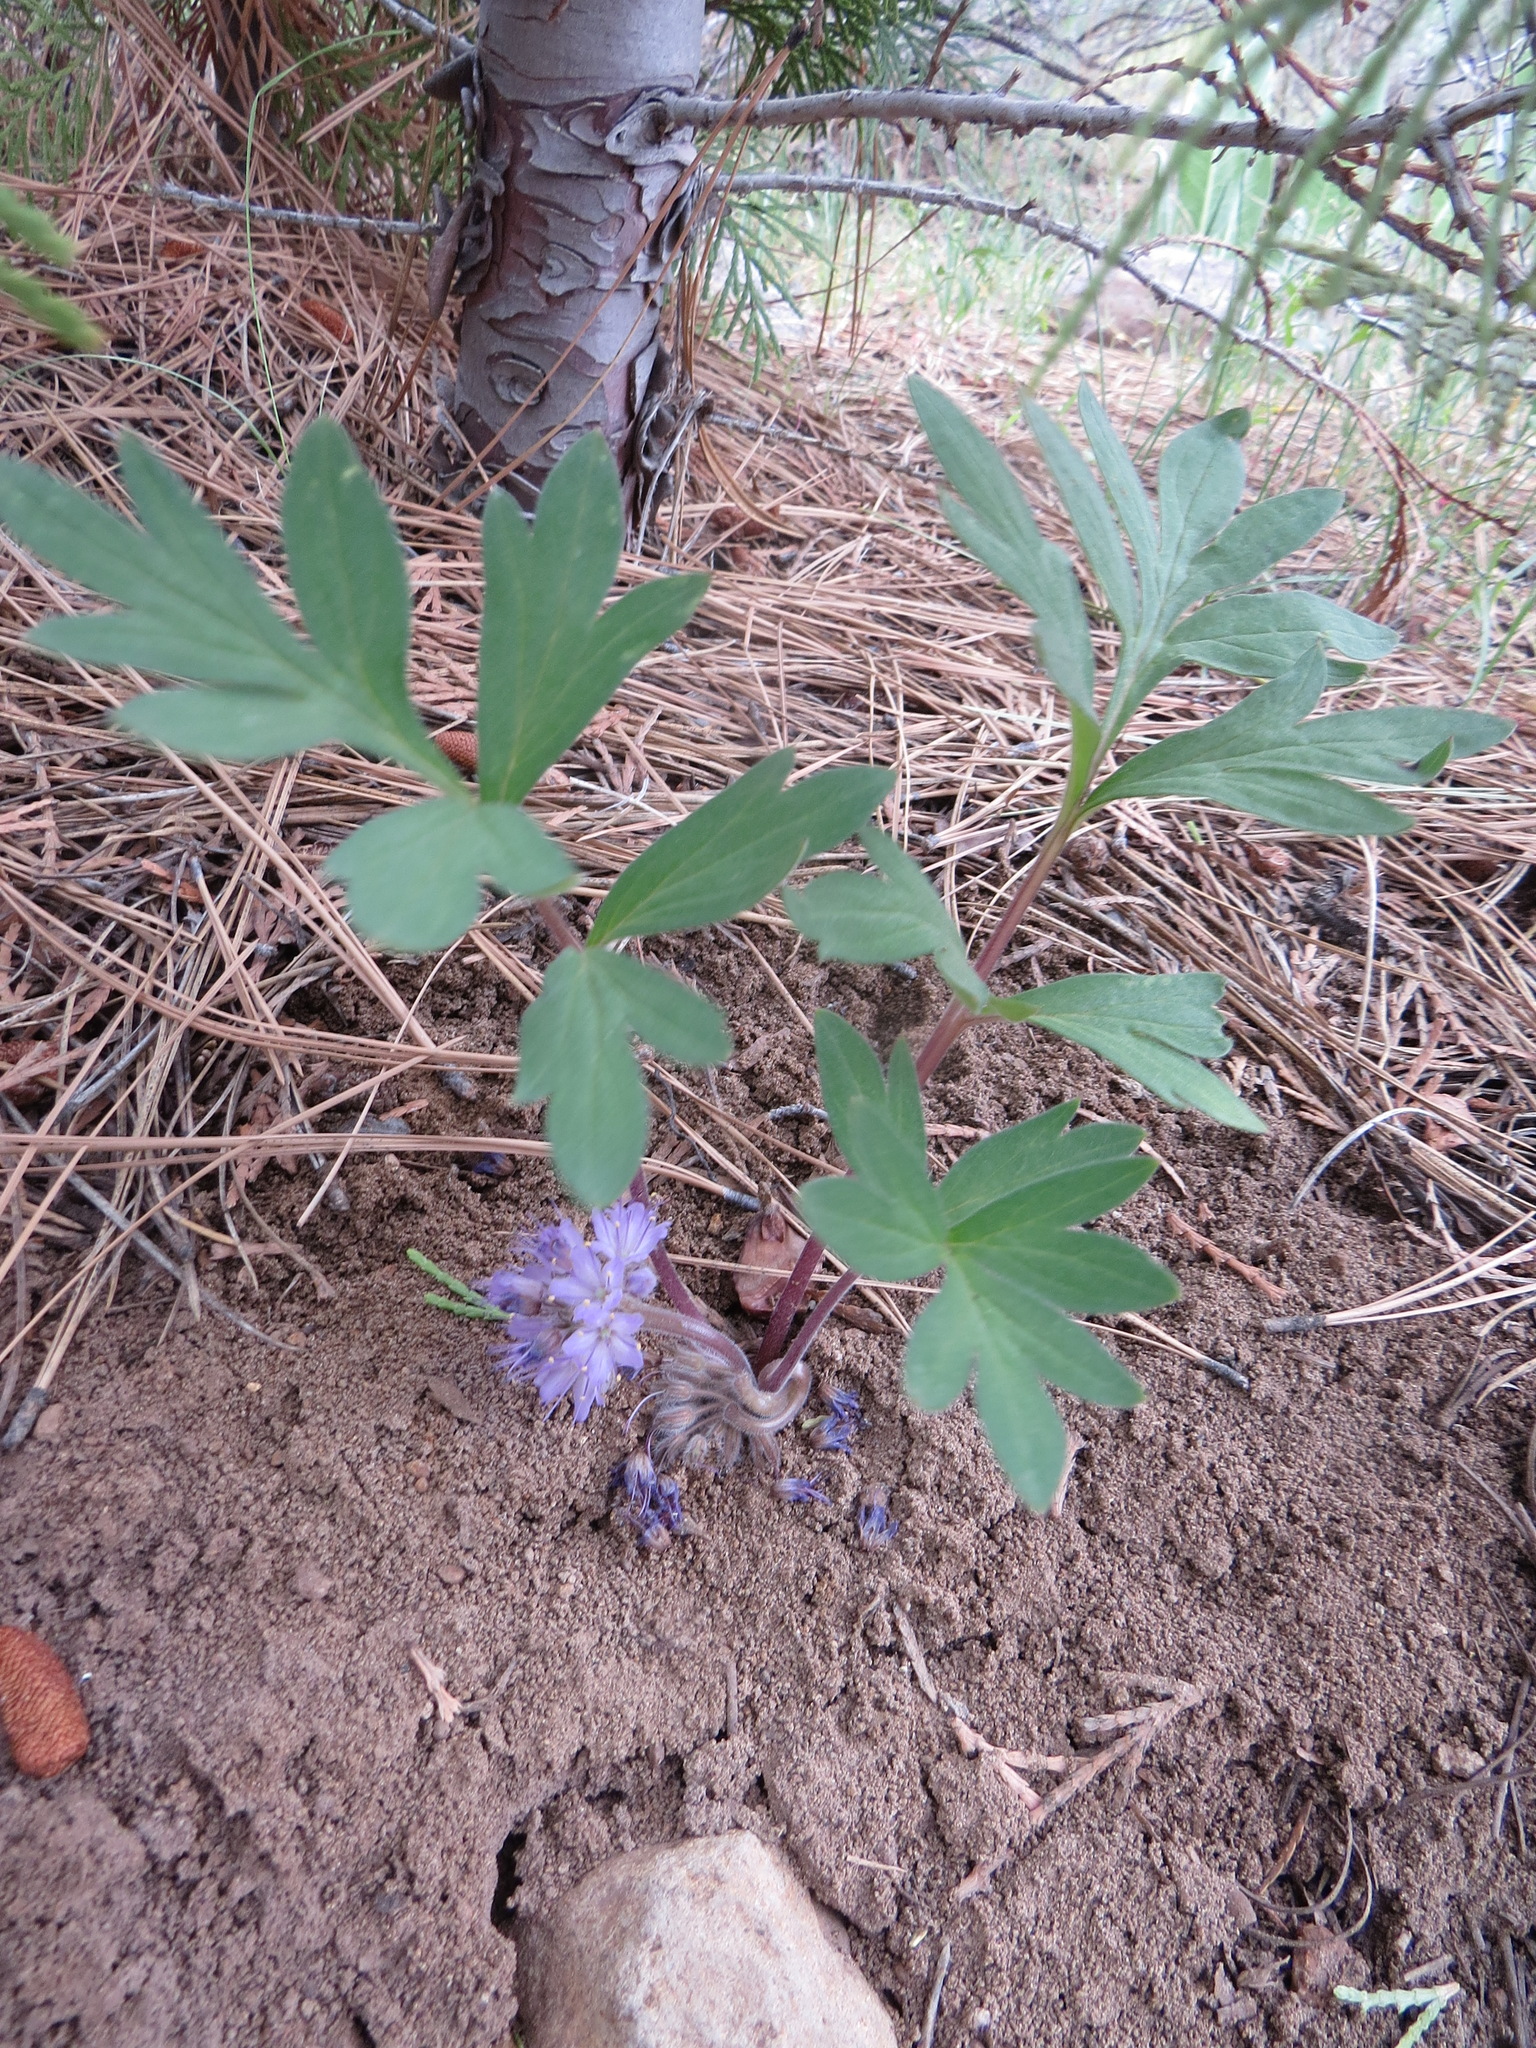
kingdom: Plantae
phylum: Tracheophyta
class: Magnoliopsida
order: Boraginales
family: Hydrophyllaceae
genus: Hydrophyllum
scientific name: Hydrophyllum alpestre
